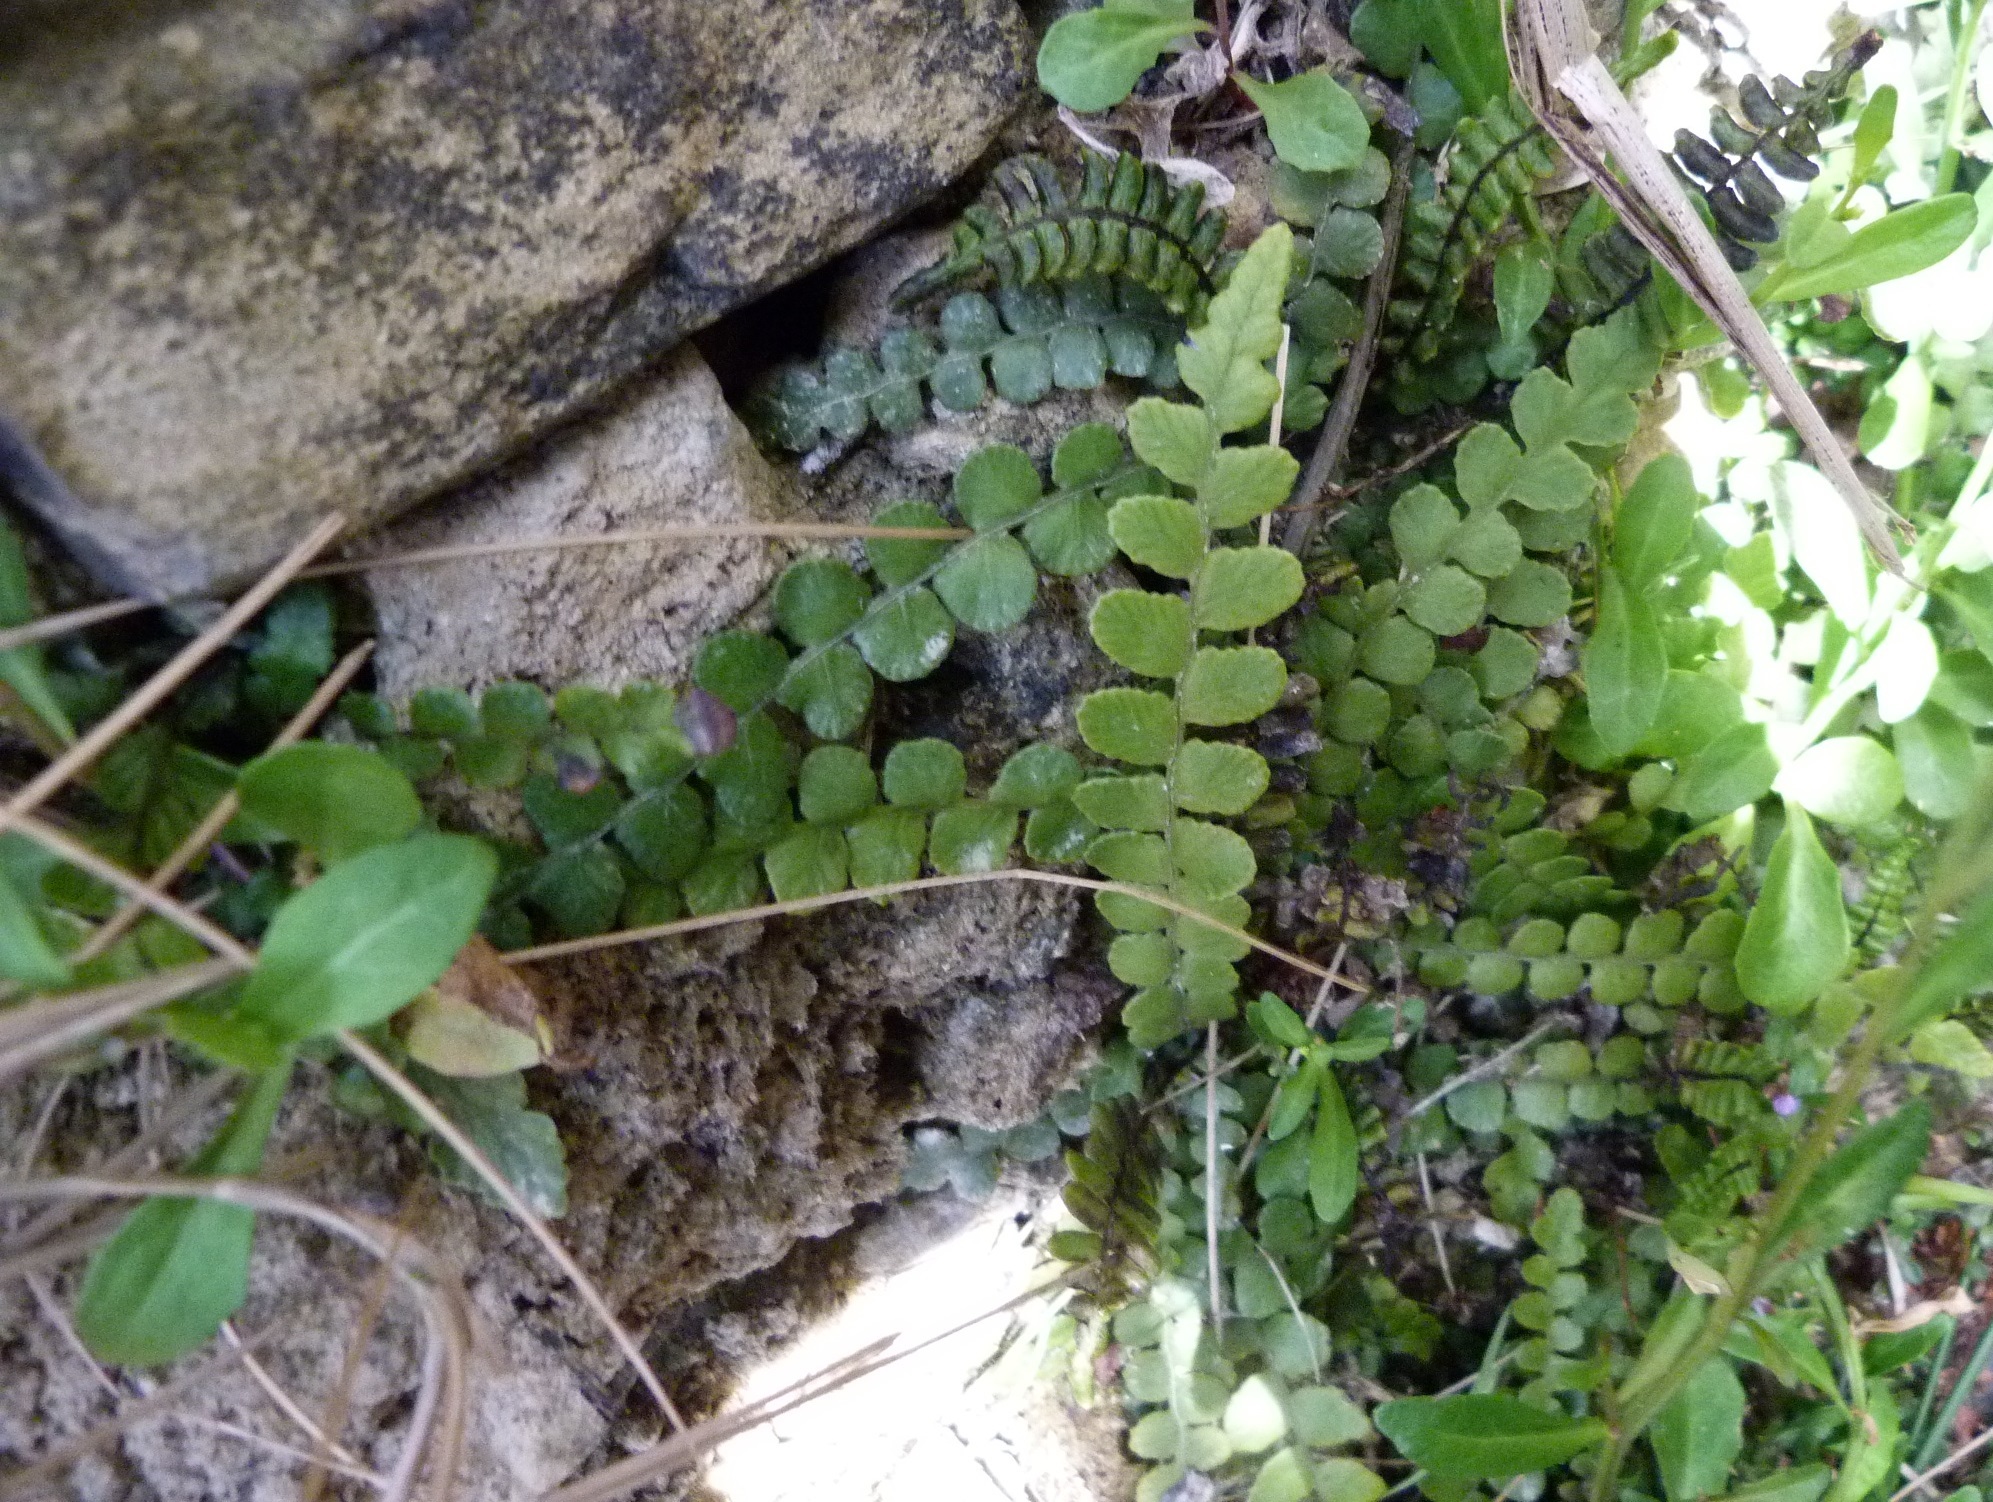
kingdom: Plantae
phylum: Tracheophyta
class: Polypodiopsida
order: Polypodiales
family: Blechnaceae
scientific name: Blechnaceae
